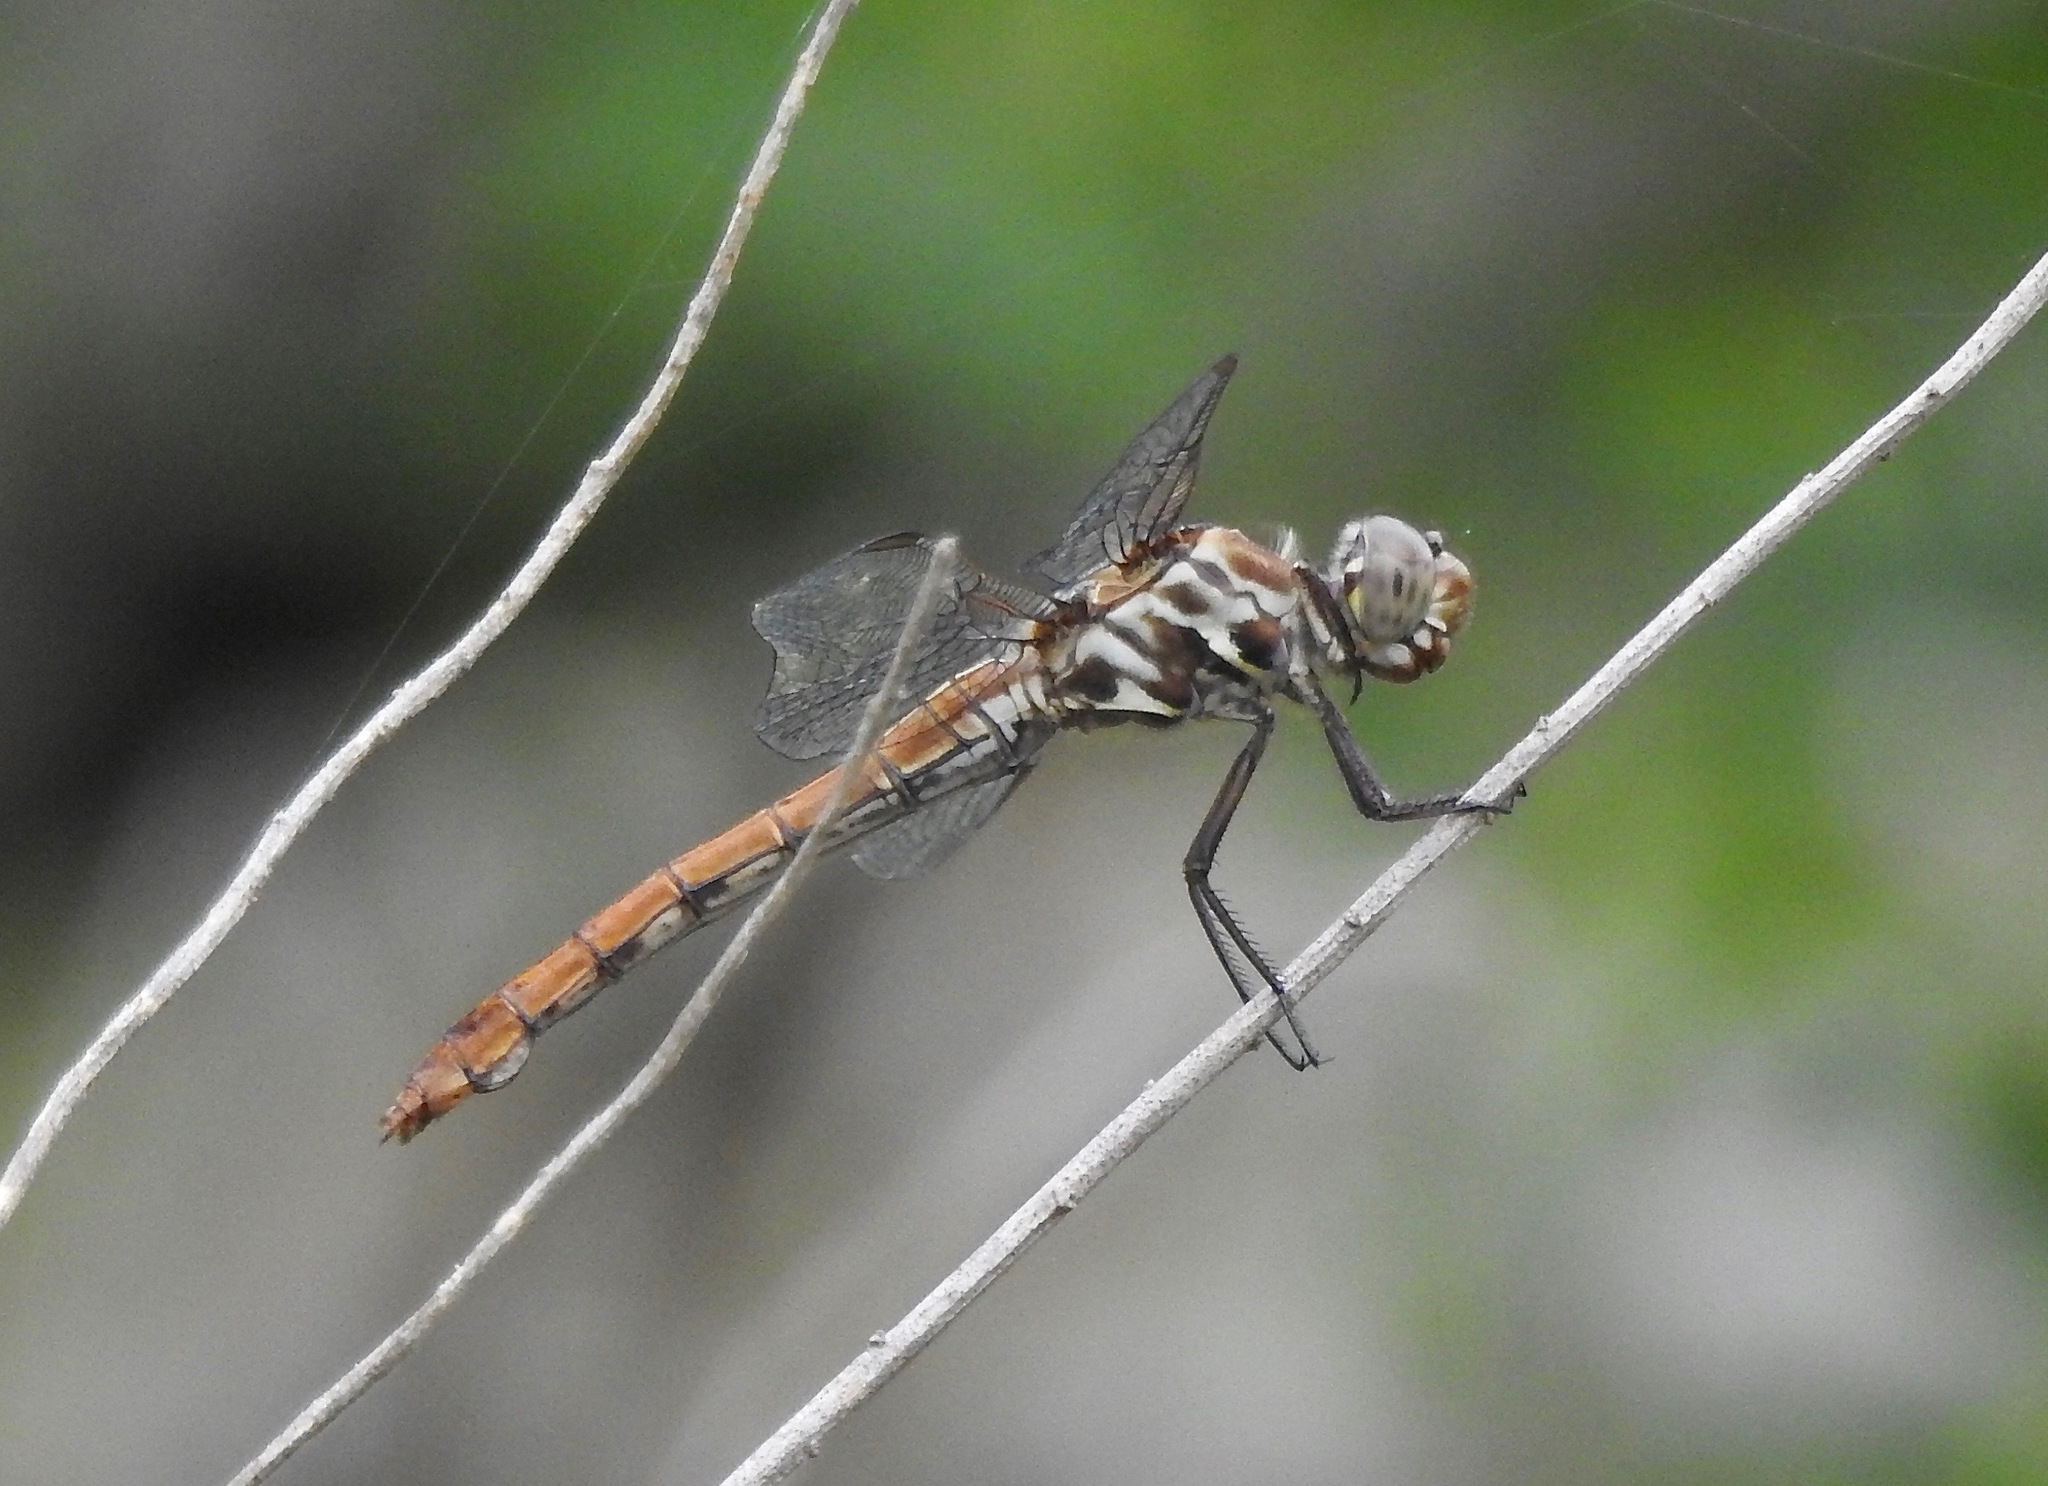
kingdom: Animalia
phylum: Arthropoda
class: Insecta
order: Odonata
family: Libellulidae
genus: Orthemis
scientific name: Orthemis ferruginea
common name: Roseate skimmer
